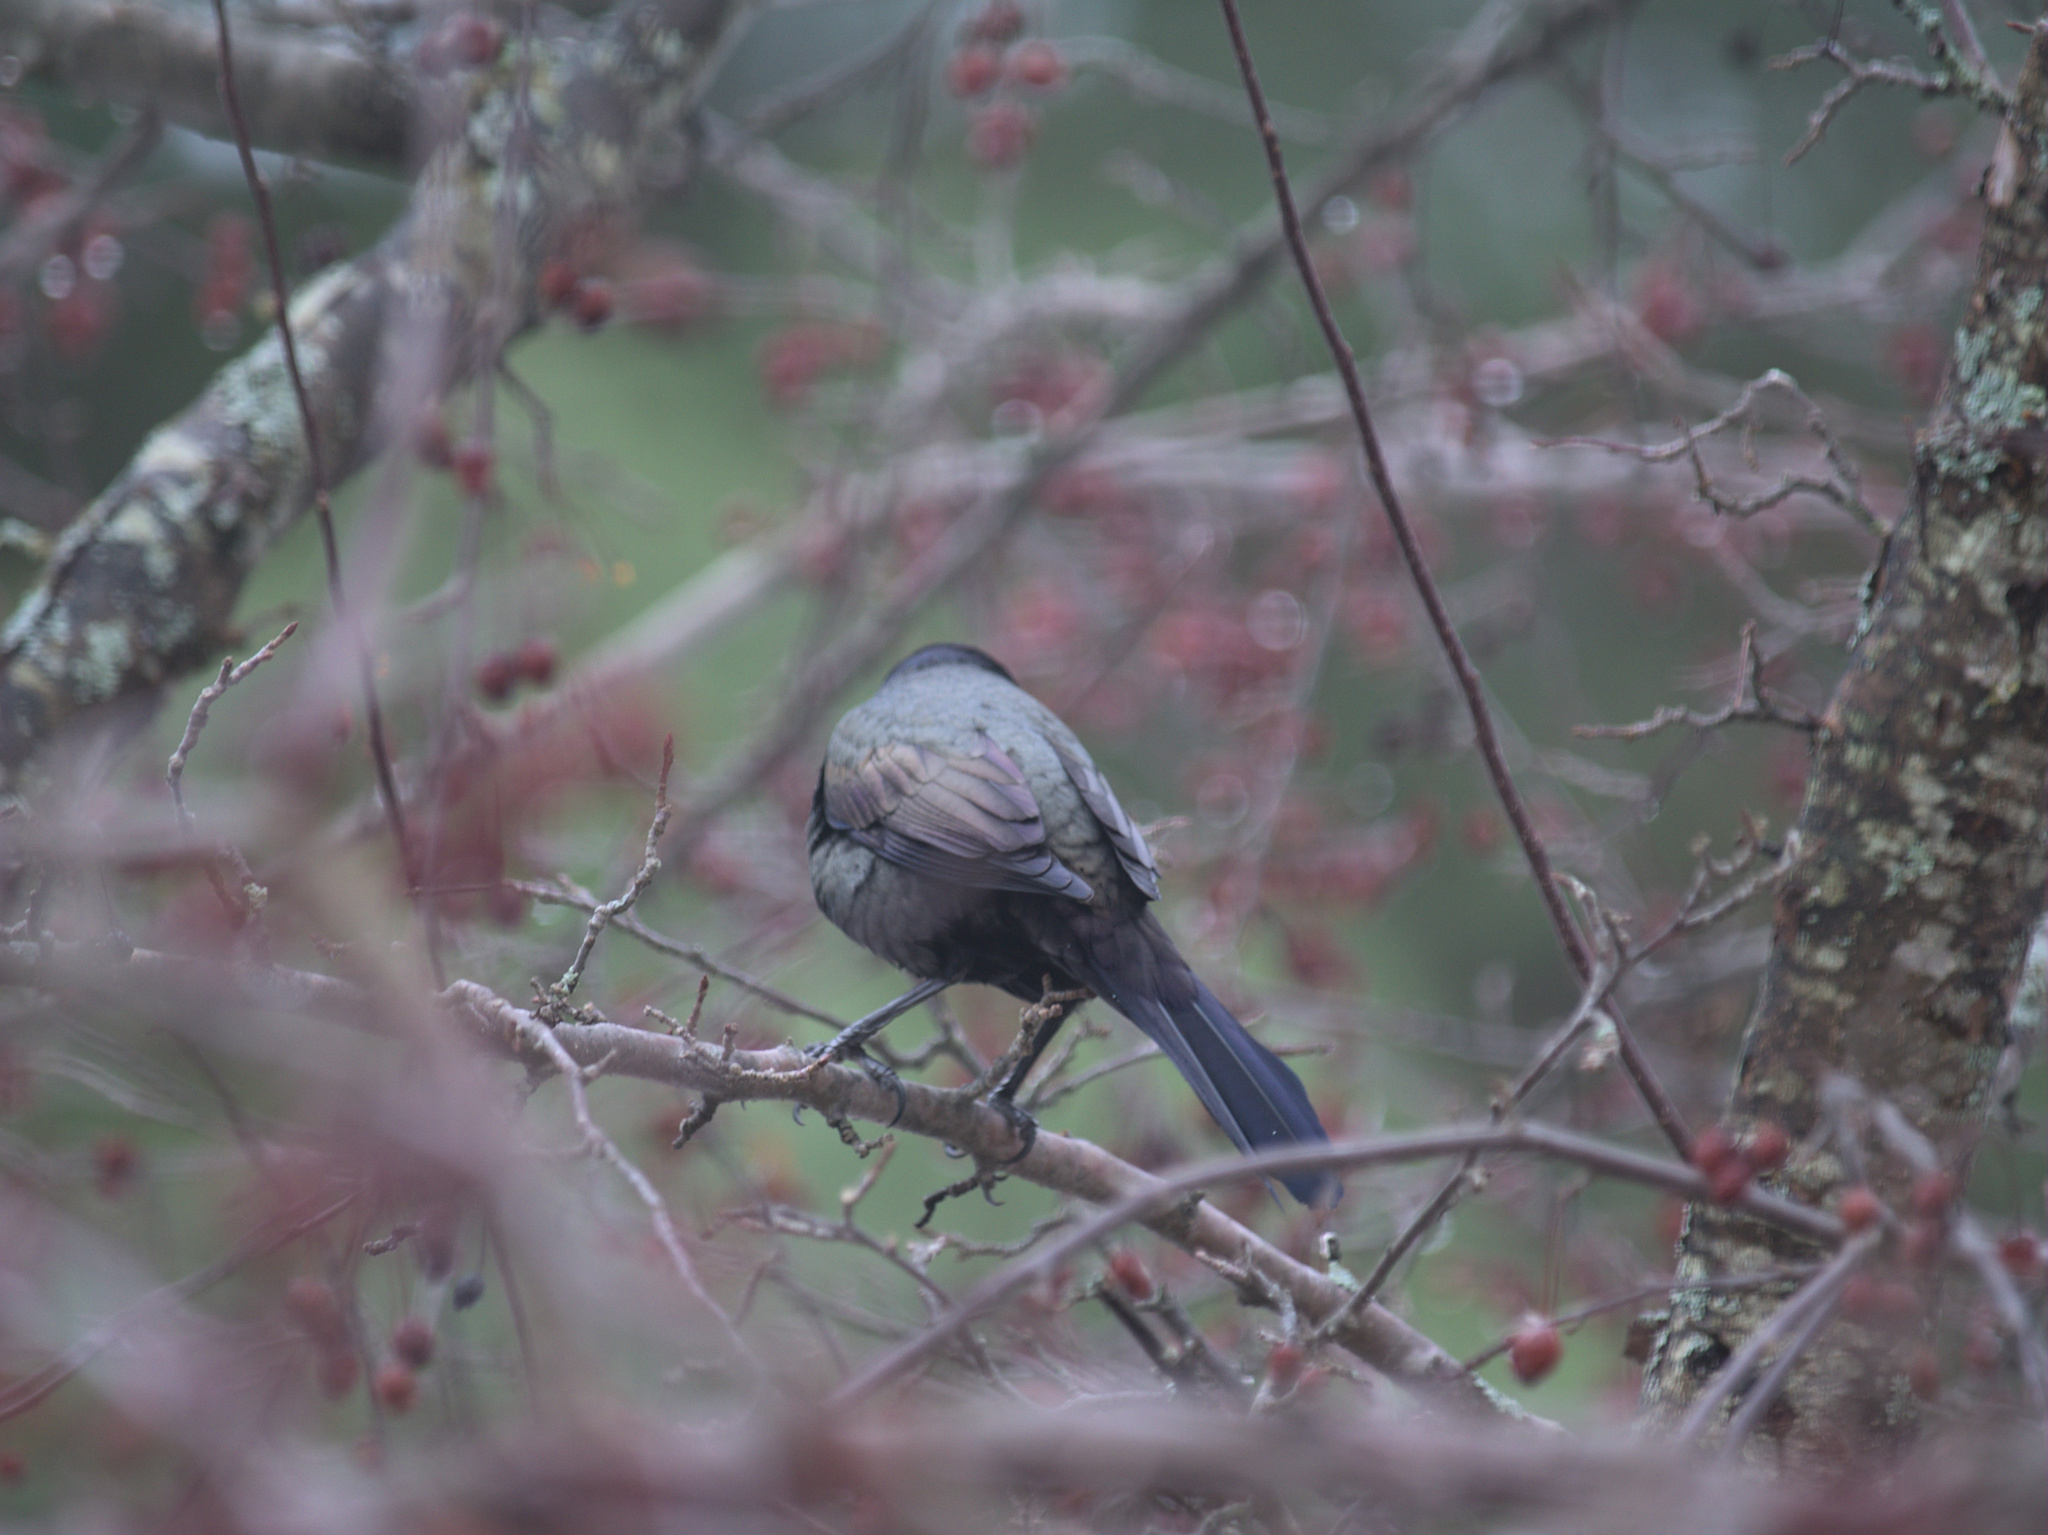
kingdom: Animalia
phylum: Chordata
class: Aves
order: Passeriformes
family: Icteridae
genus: Quiscalus
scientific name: Quiscalus quiscula
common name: Common grackle
